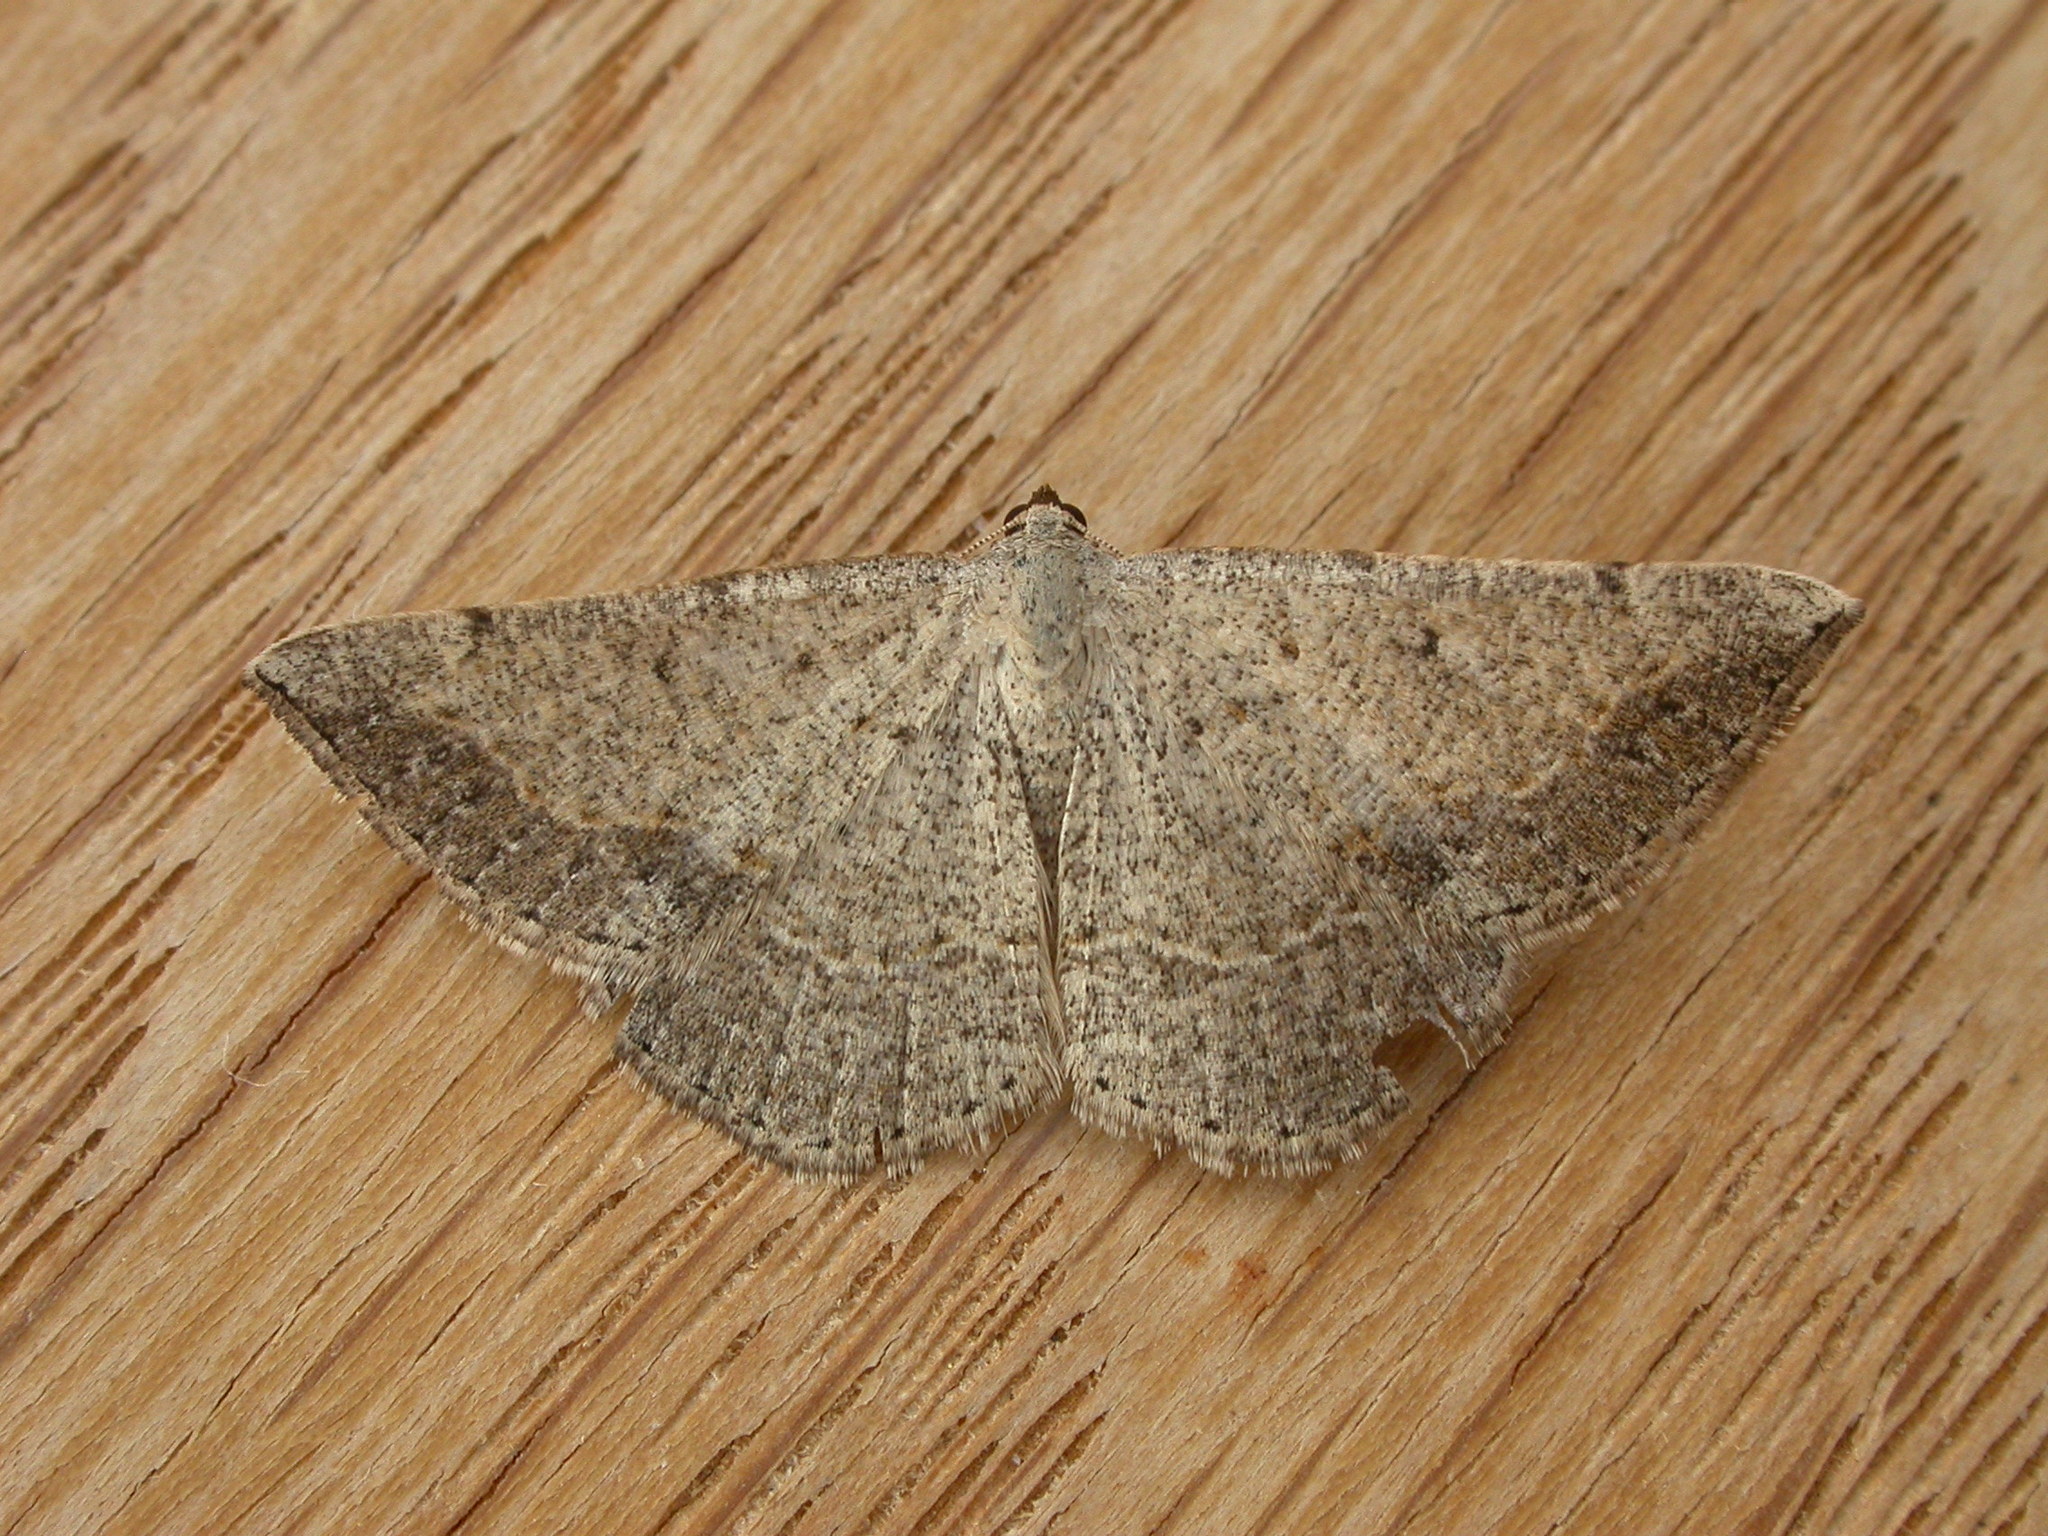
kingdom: Animalia
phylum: Arthropoda
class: Insecta
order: Lepidoptera
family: Geometridae
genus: Taxeotis
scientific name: Taxeotis intextata
